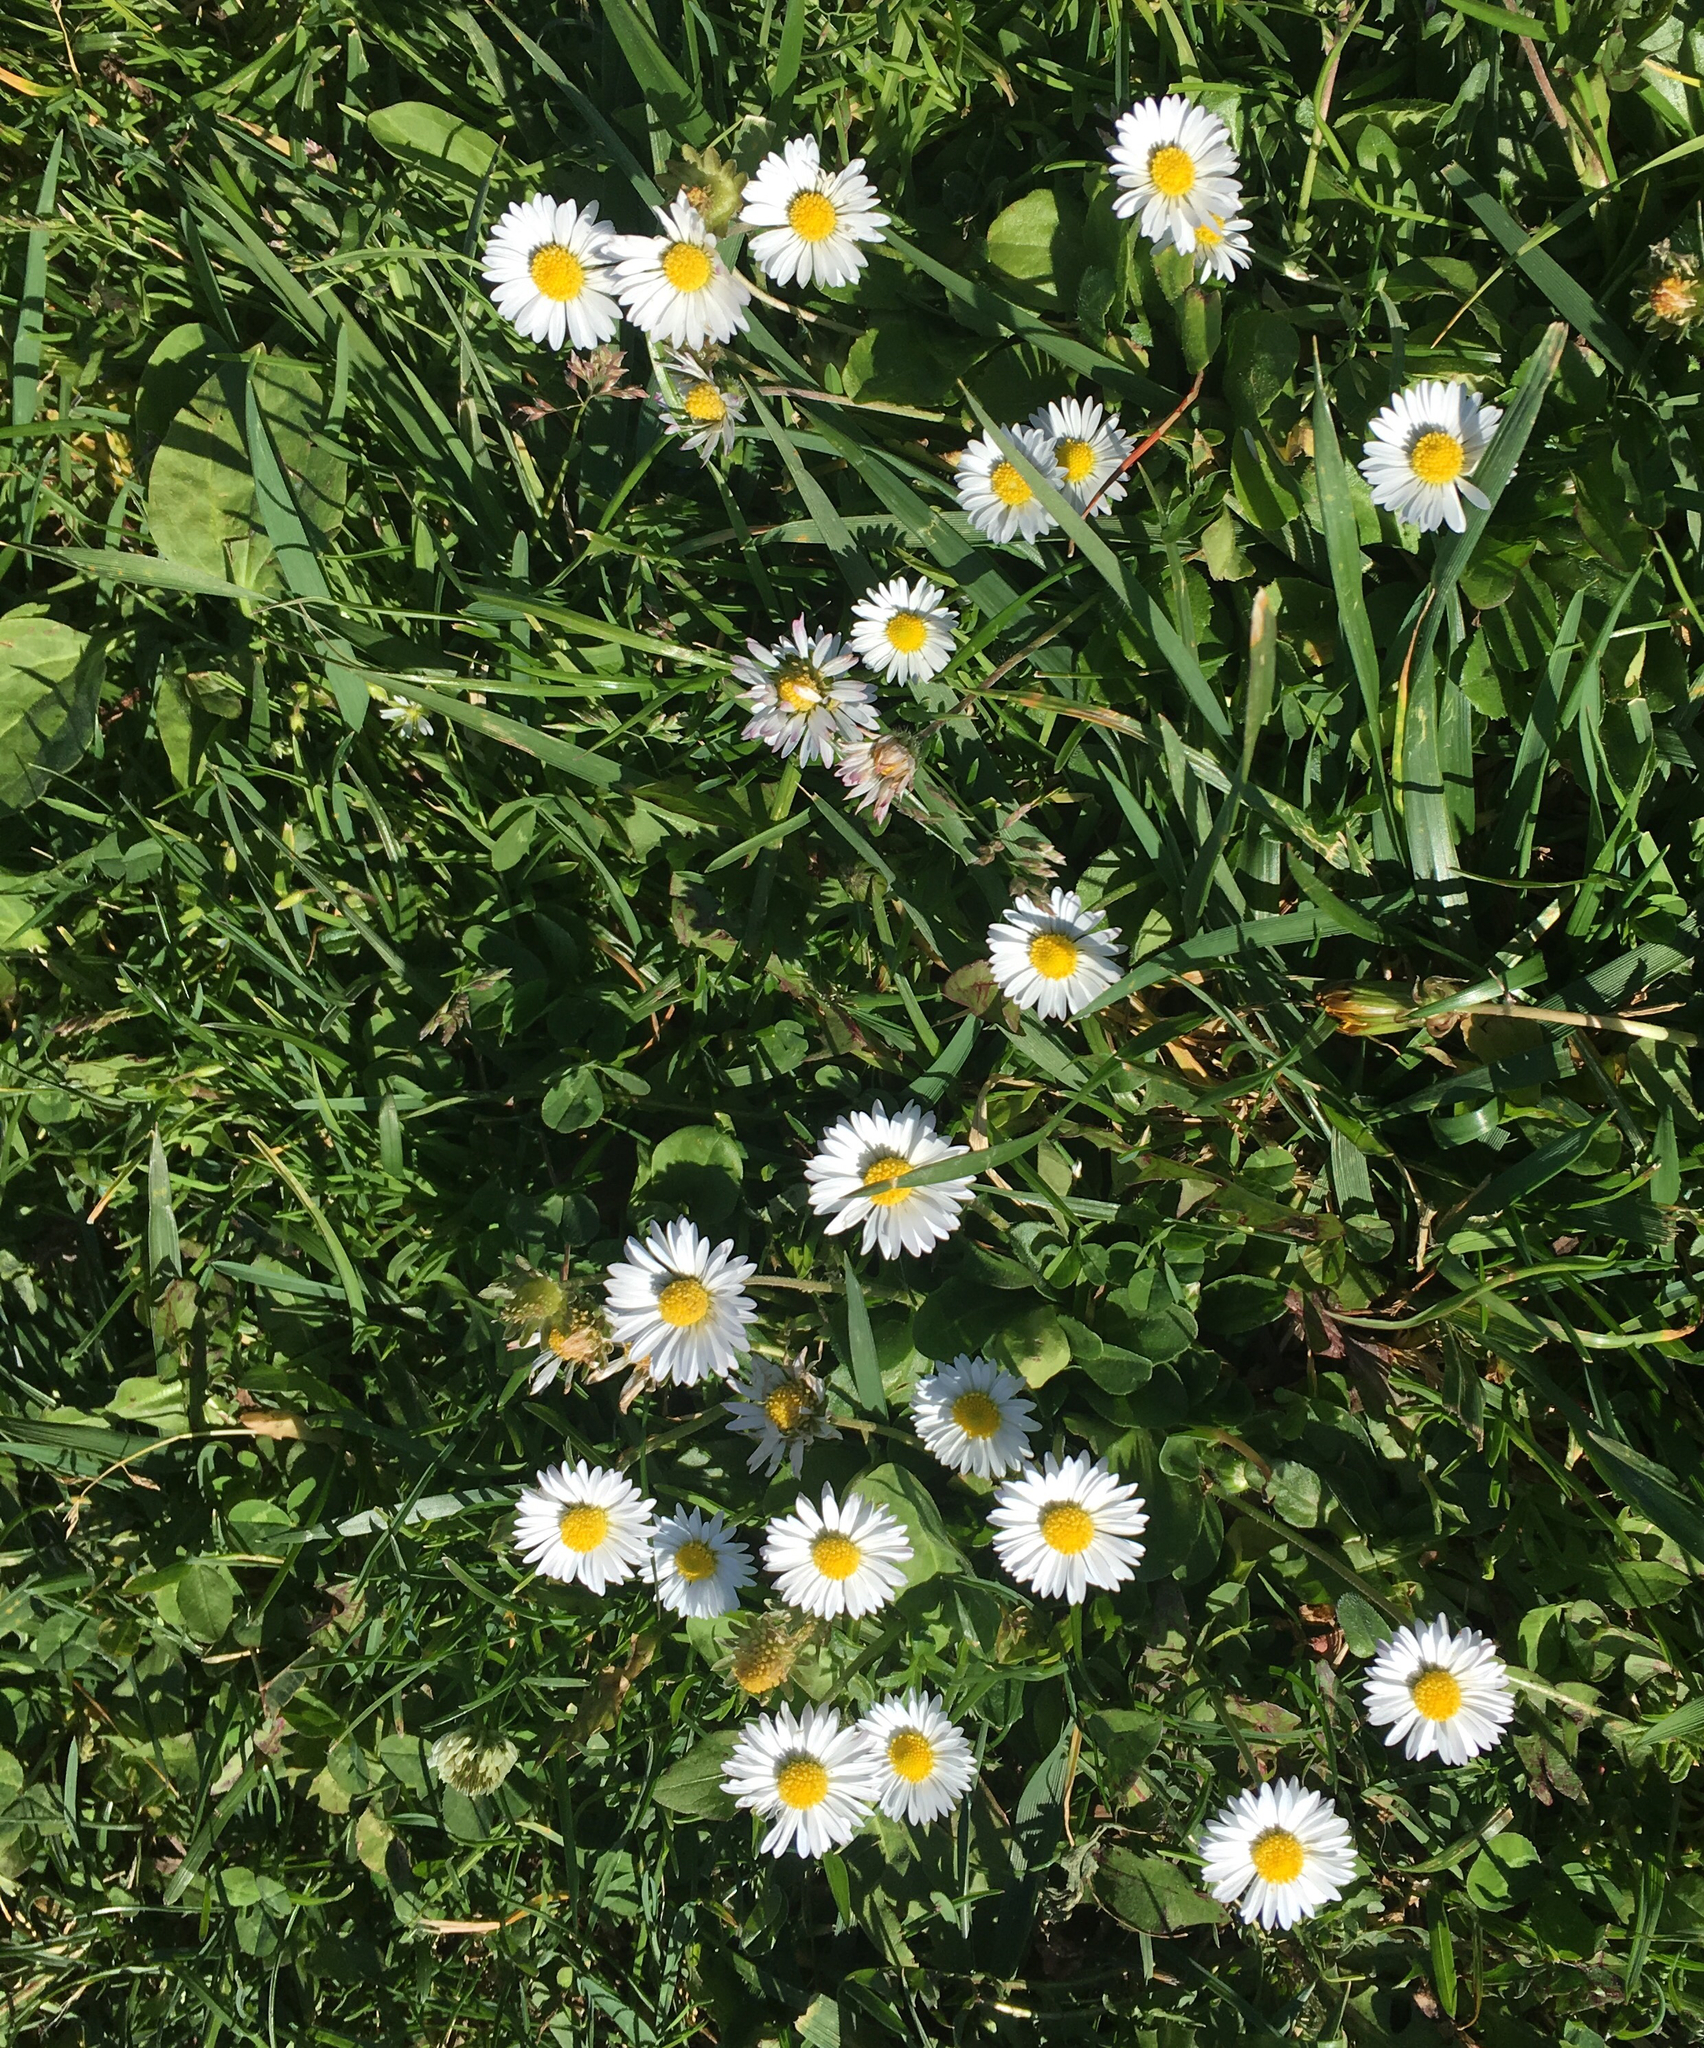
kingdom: Plantae
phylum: Tracheophyta
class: Magnoliopsida
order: Asterales
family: Asteraceae
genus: Bellis
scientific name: Bellis perennis
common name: Lawndaisy
